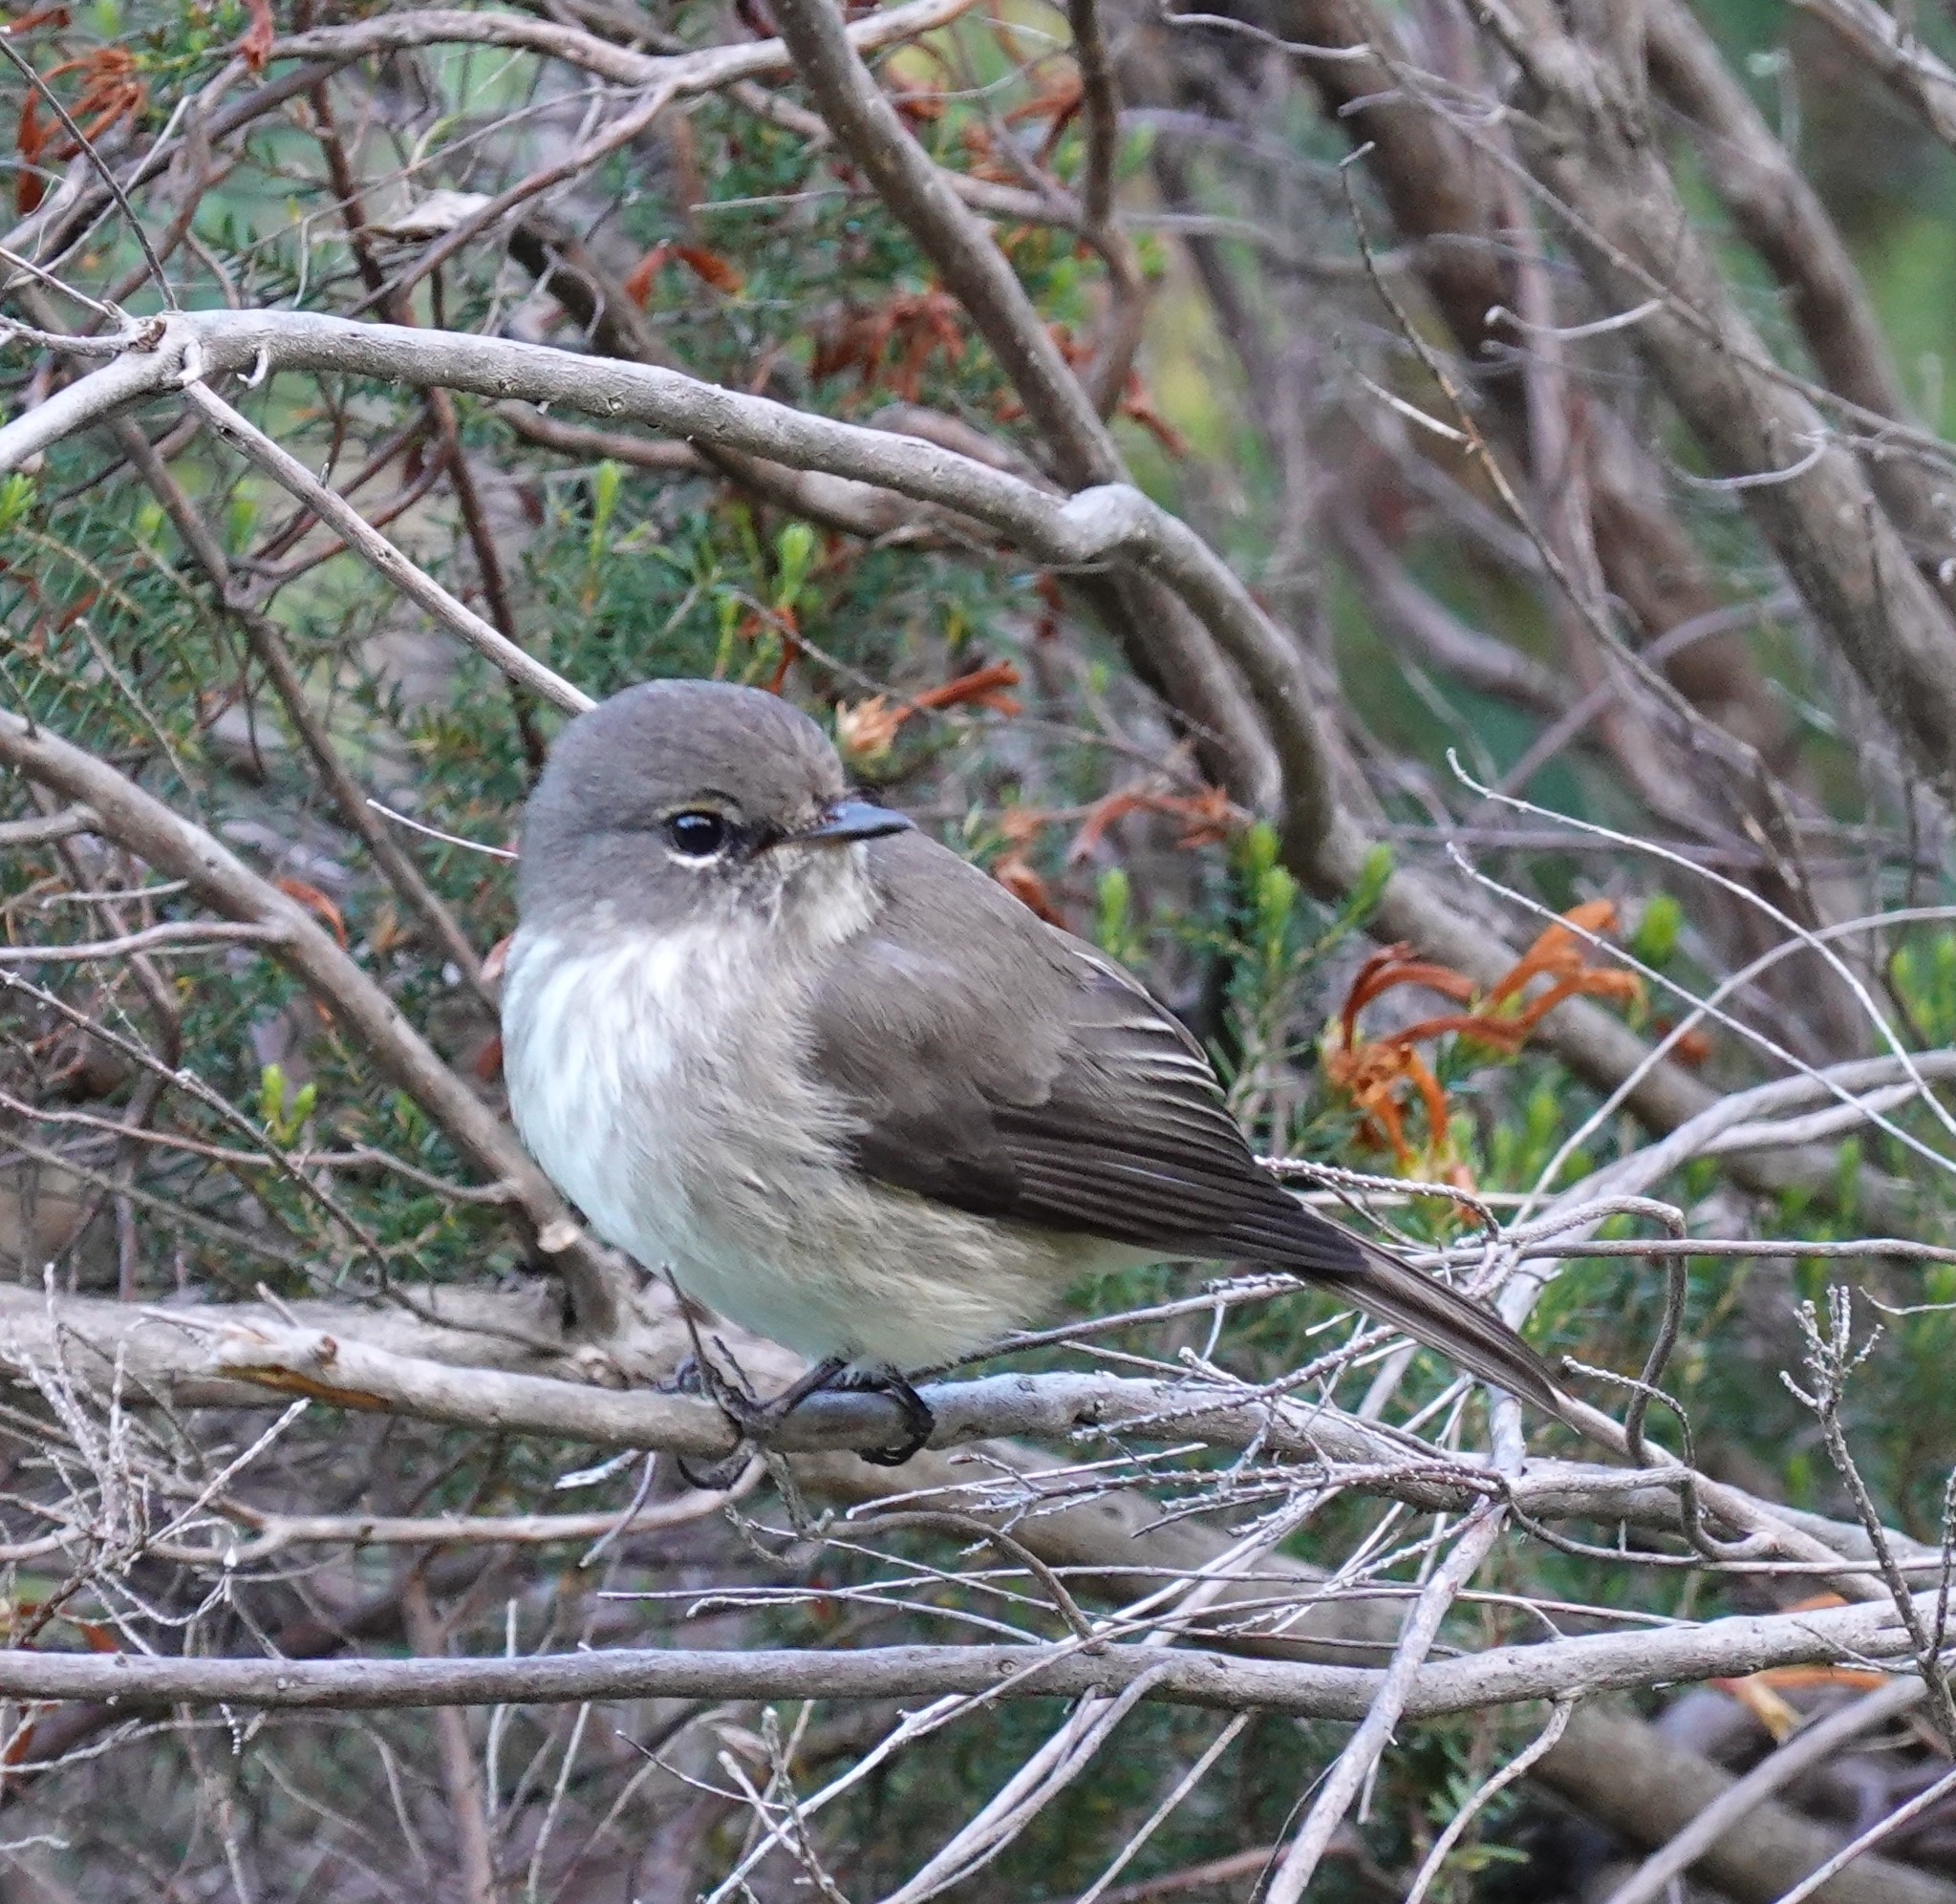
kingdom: Animalia
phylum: Chordata
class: Aves
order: Passeriformes
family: Muscicapidae
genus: Muscicapa
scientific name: Muscicapa adusta
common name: African dusky flycatcher
